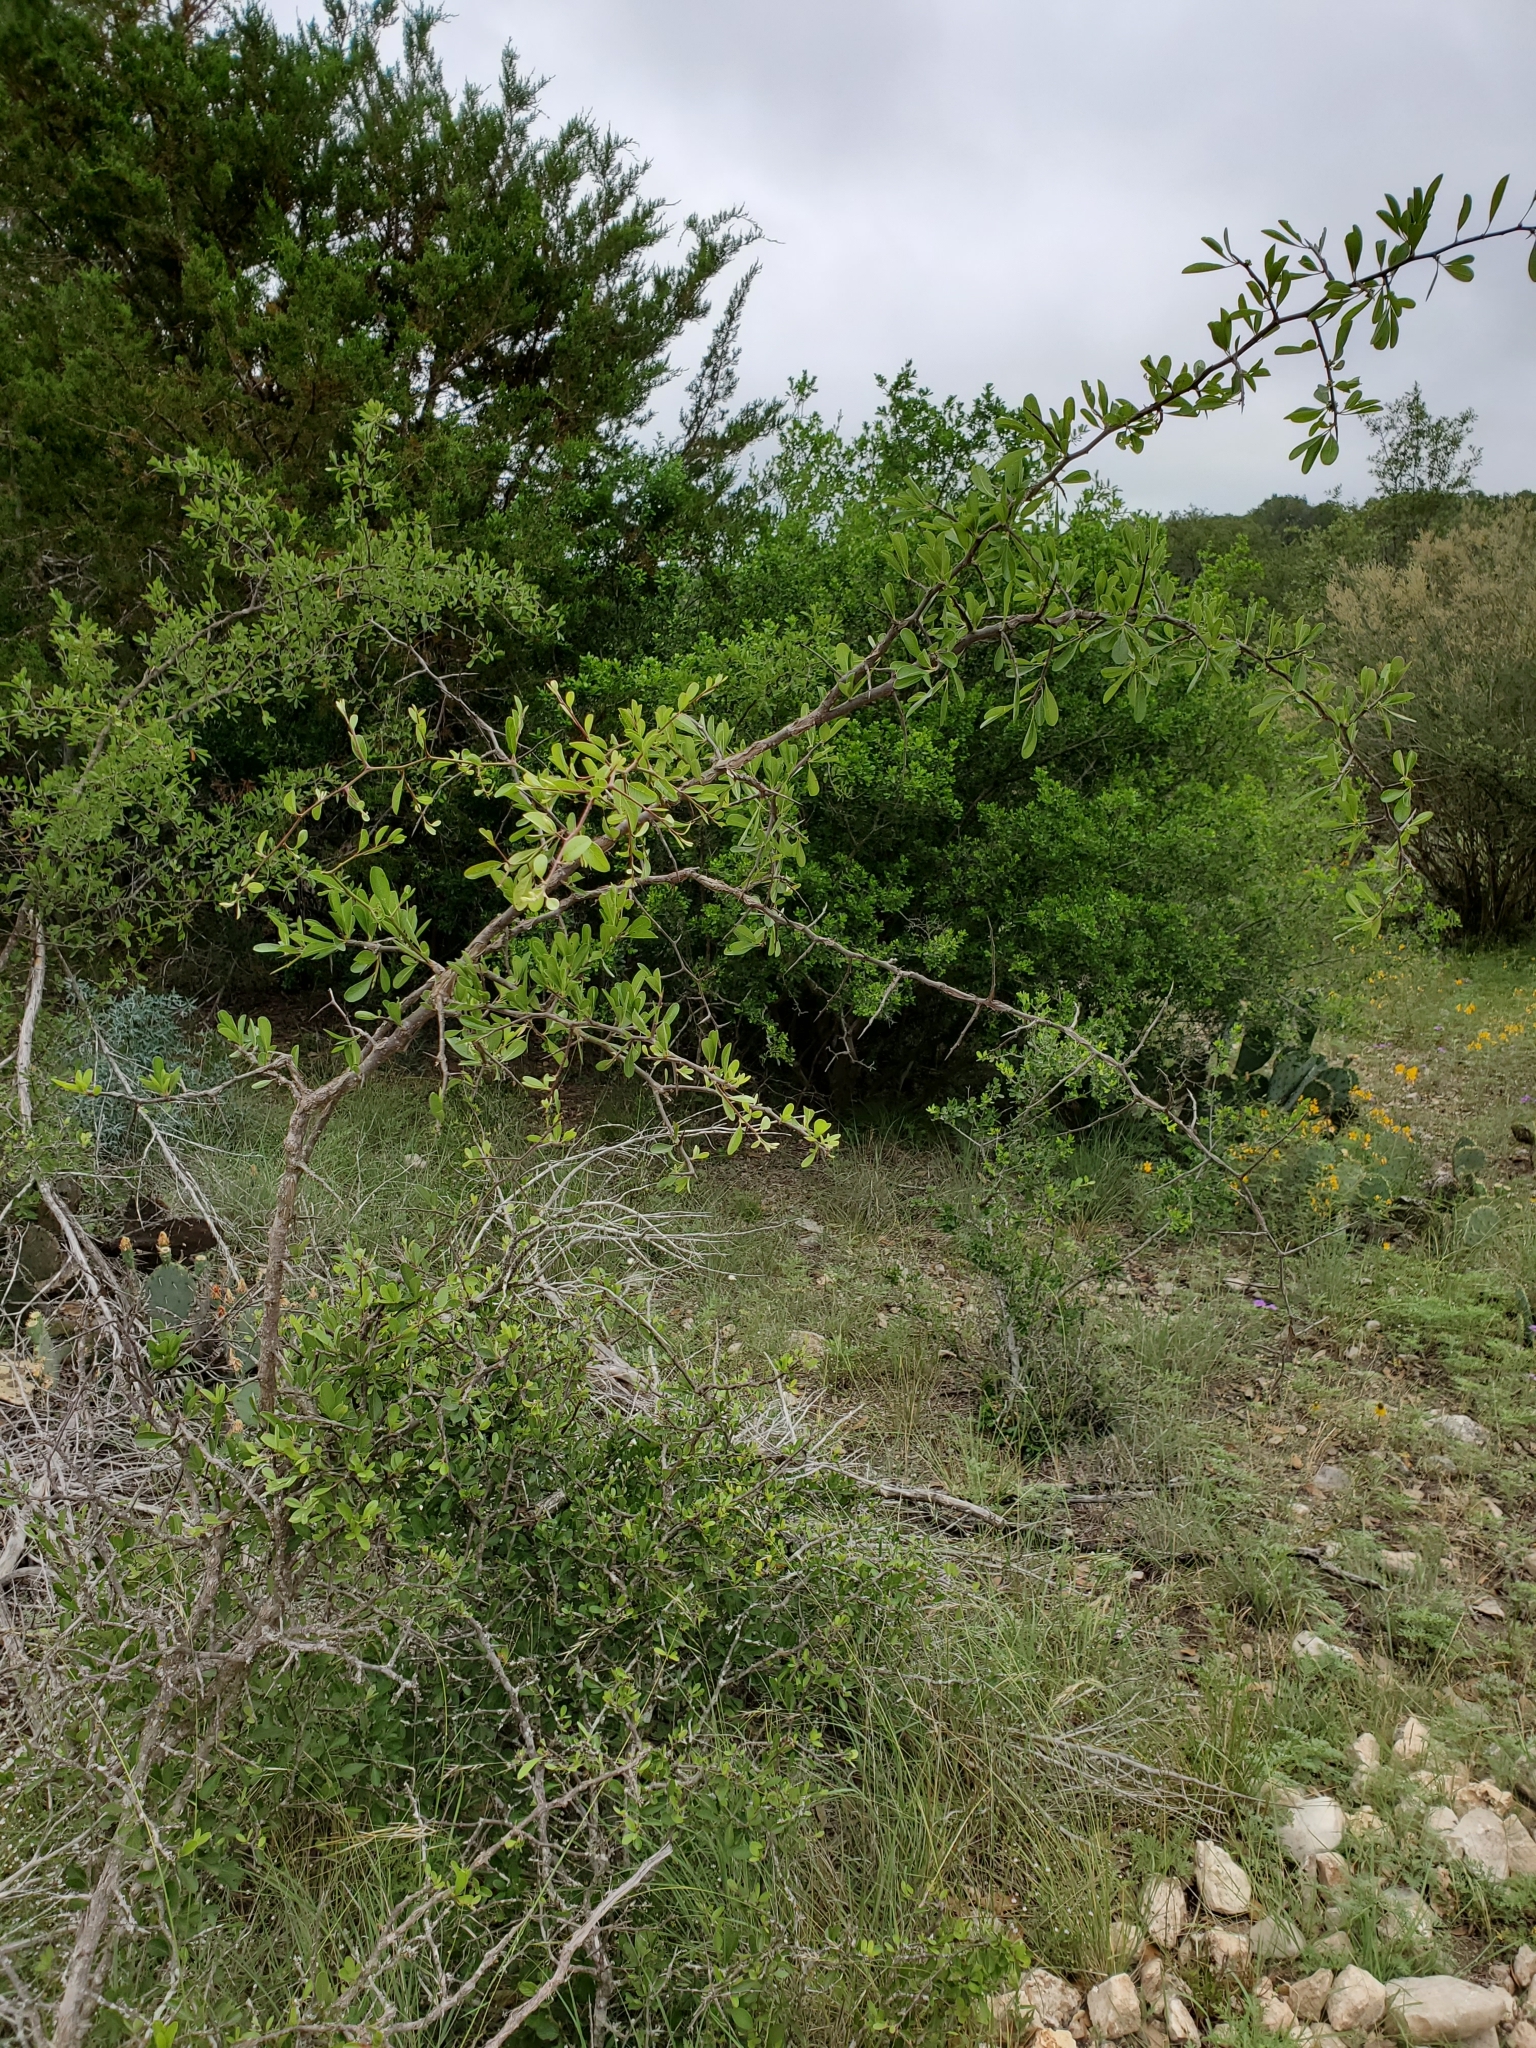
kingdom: Plantae
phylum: Tracheophyta
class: Magnoliopsida
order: Ericales
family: Sapotaceae
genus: Sideroxylon
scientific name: Sideroxylon lanuginosum
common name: Chittamwood
